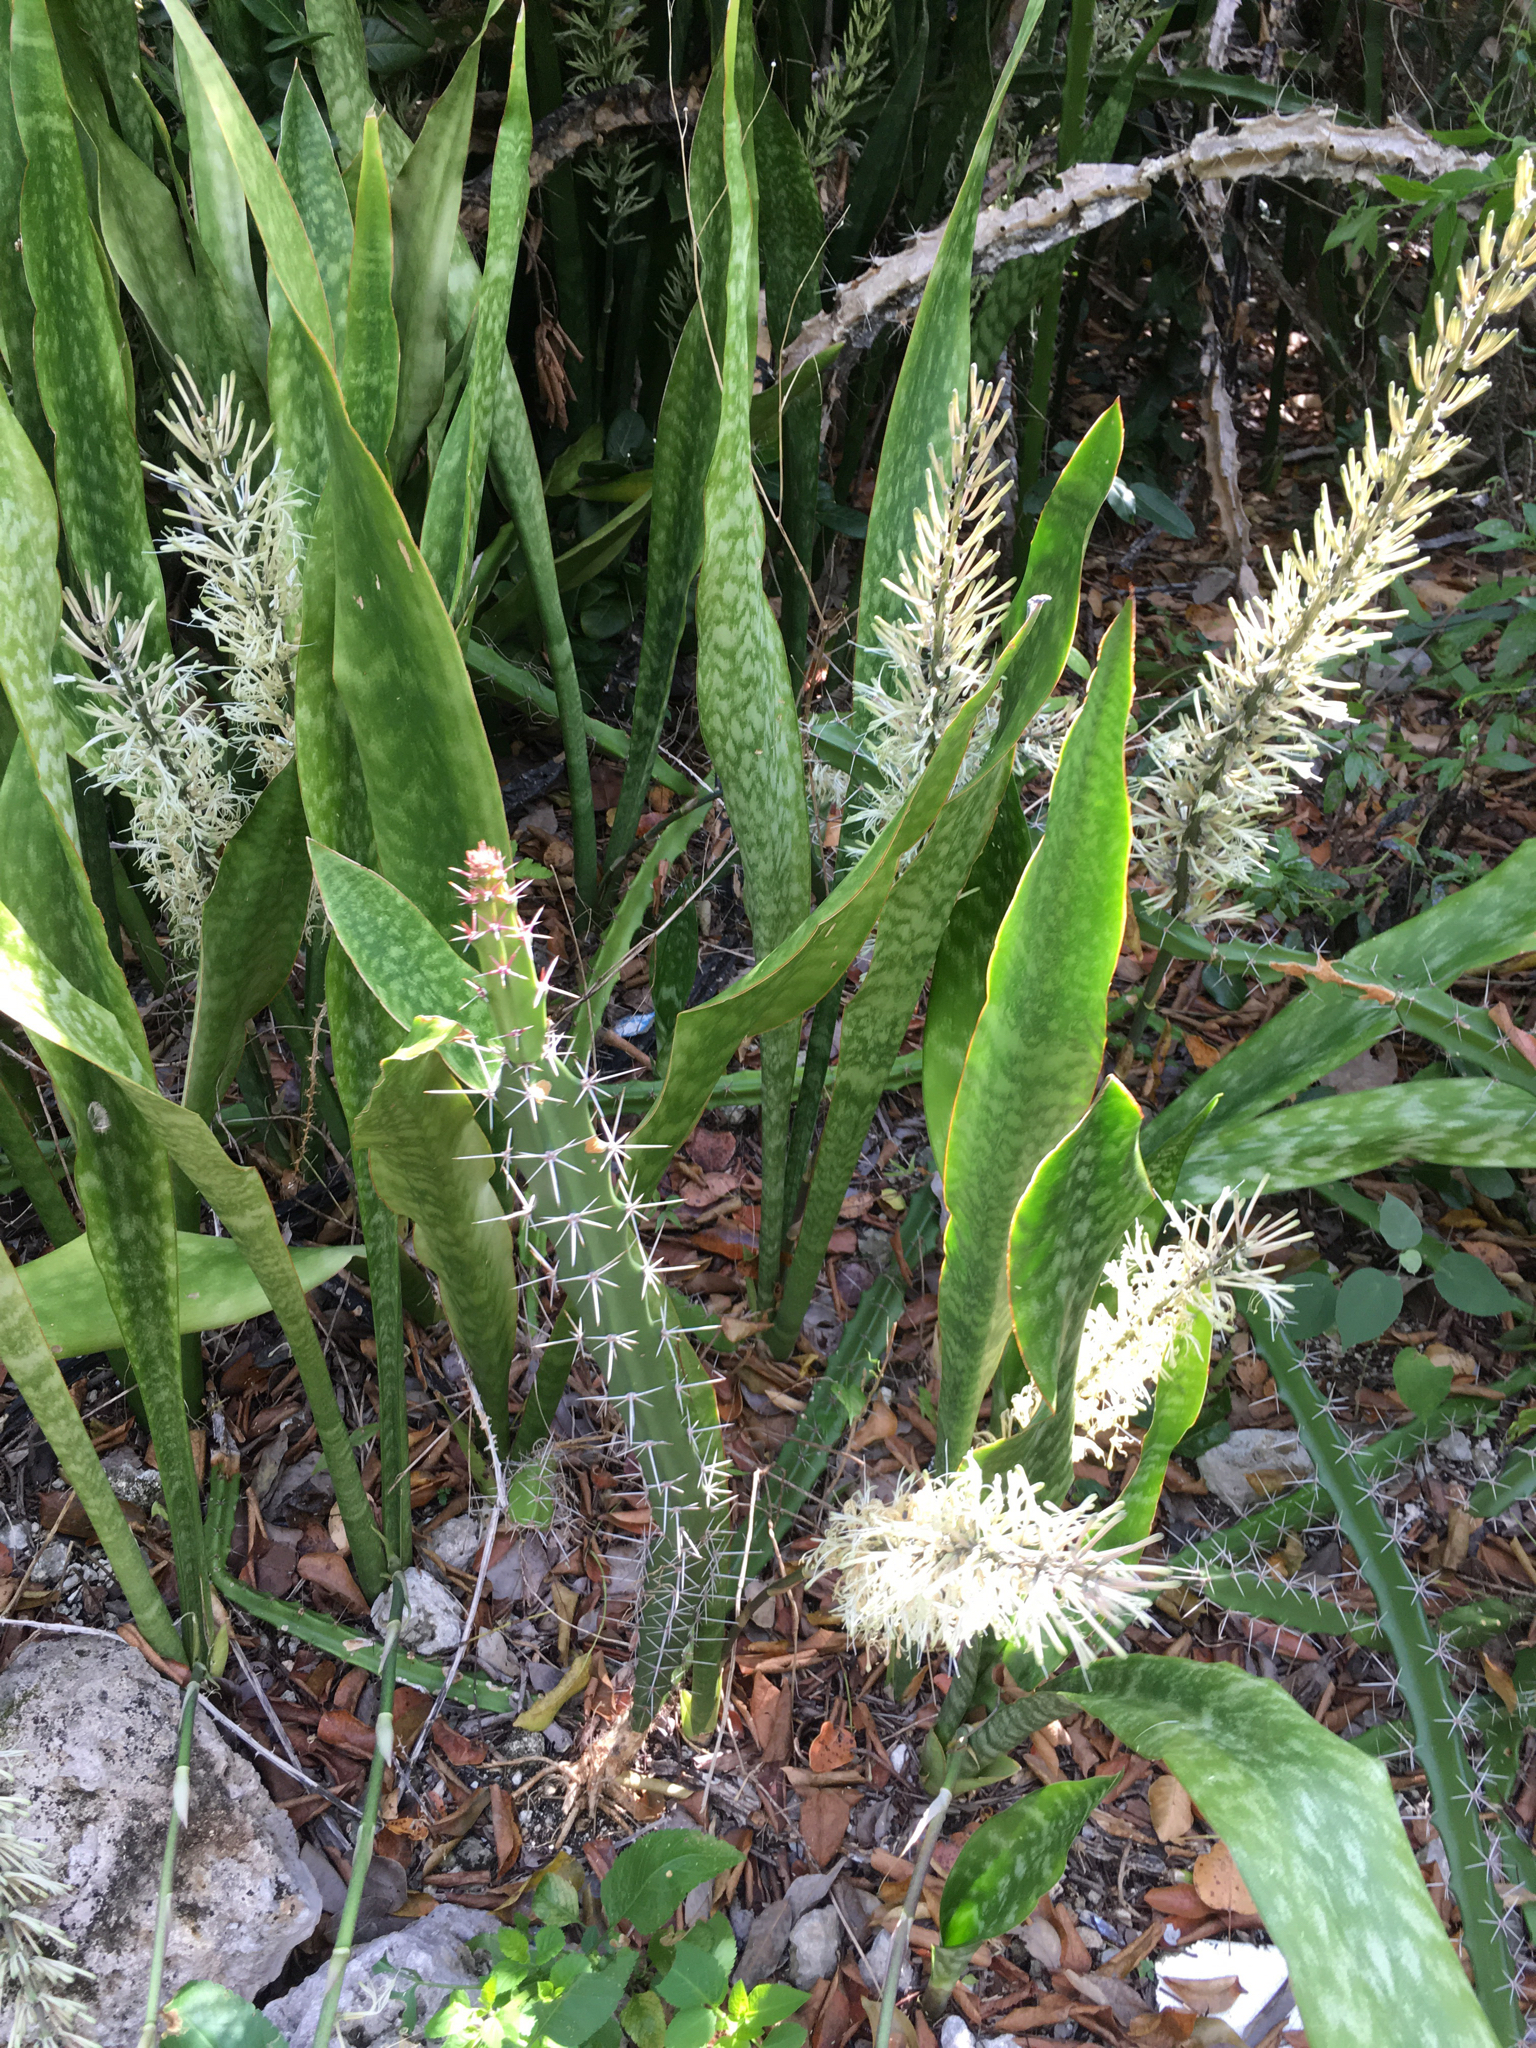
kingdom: Plantae
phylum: Tracheophyta
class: Liliopsida
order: Asparagales
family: Asparagaceae
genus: Dracaena
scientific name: Dracaena hyacinthoides
